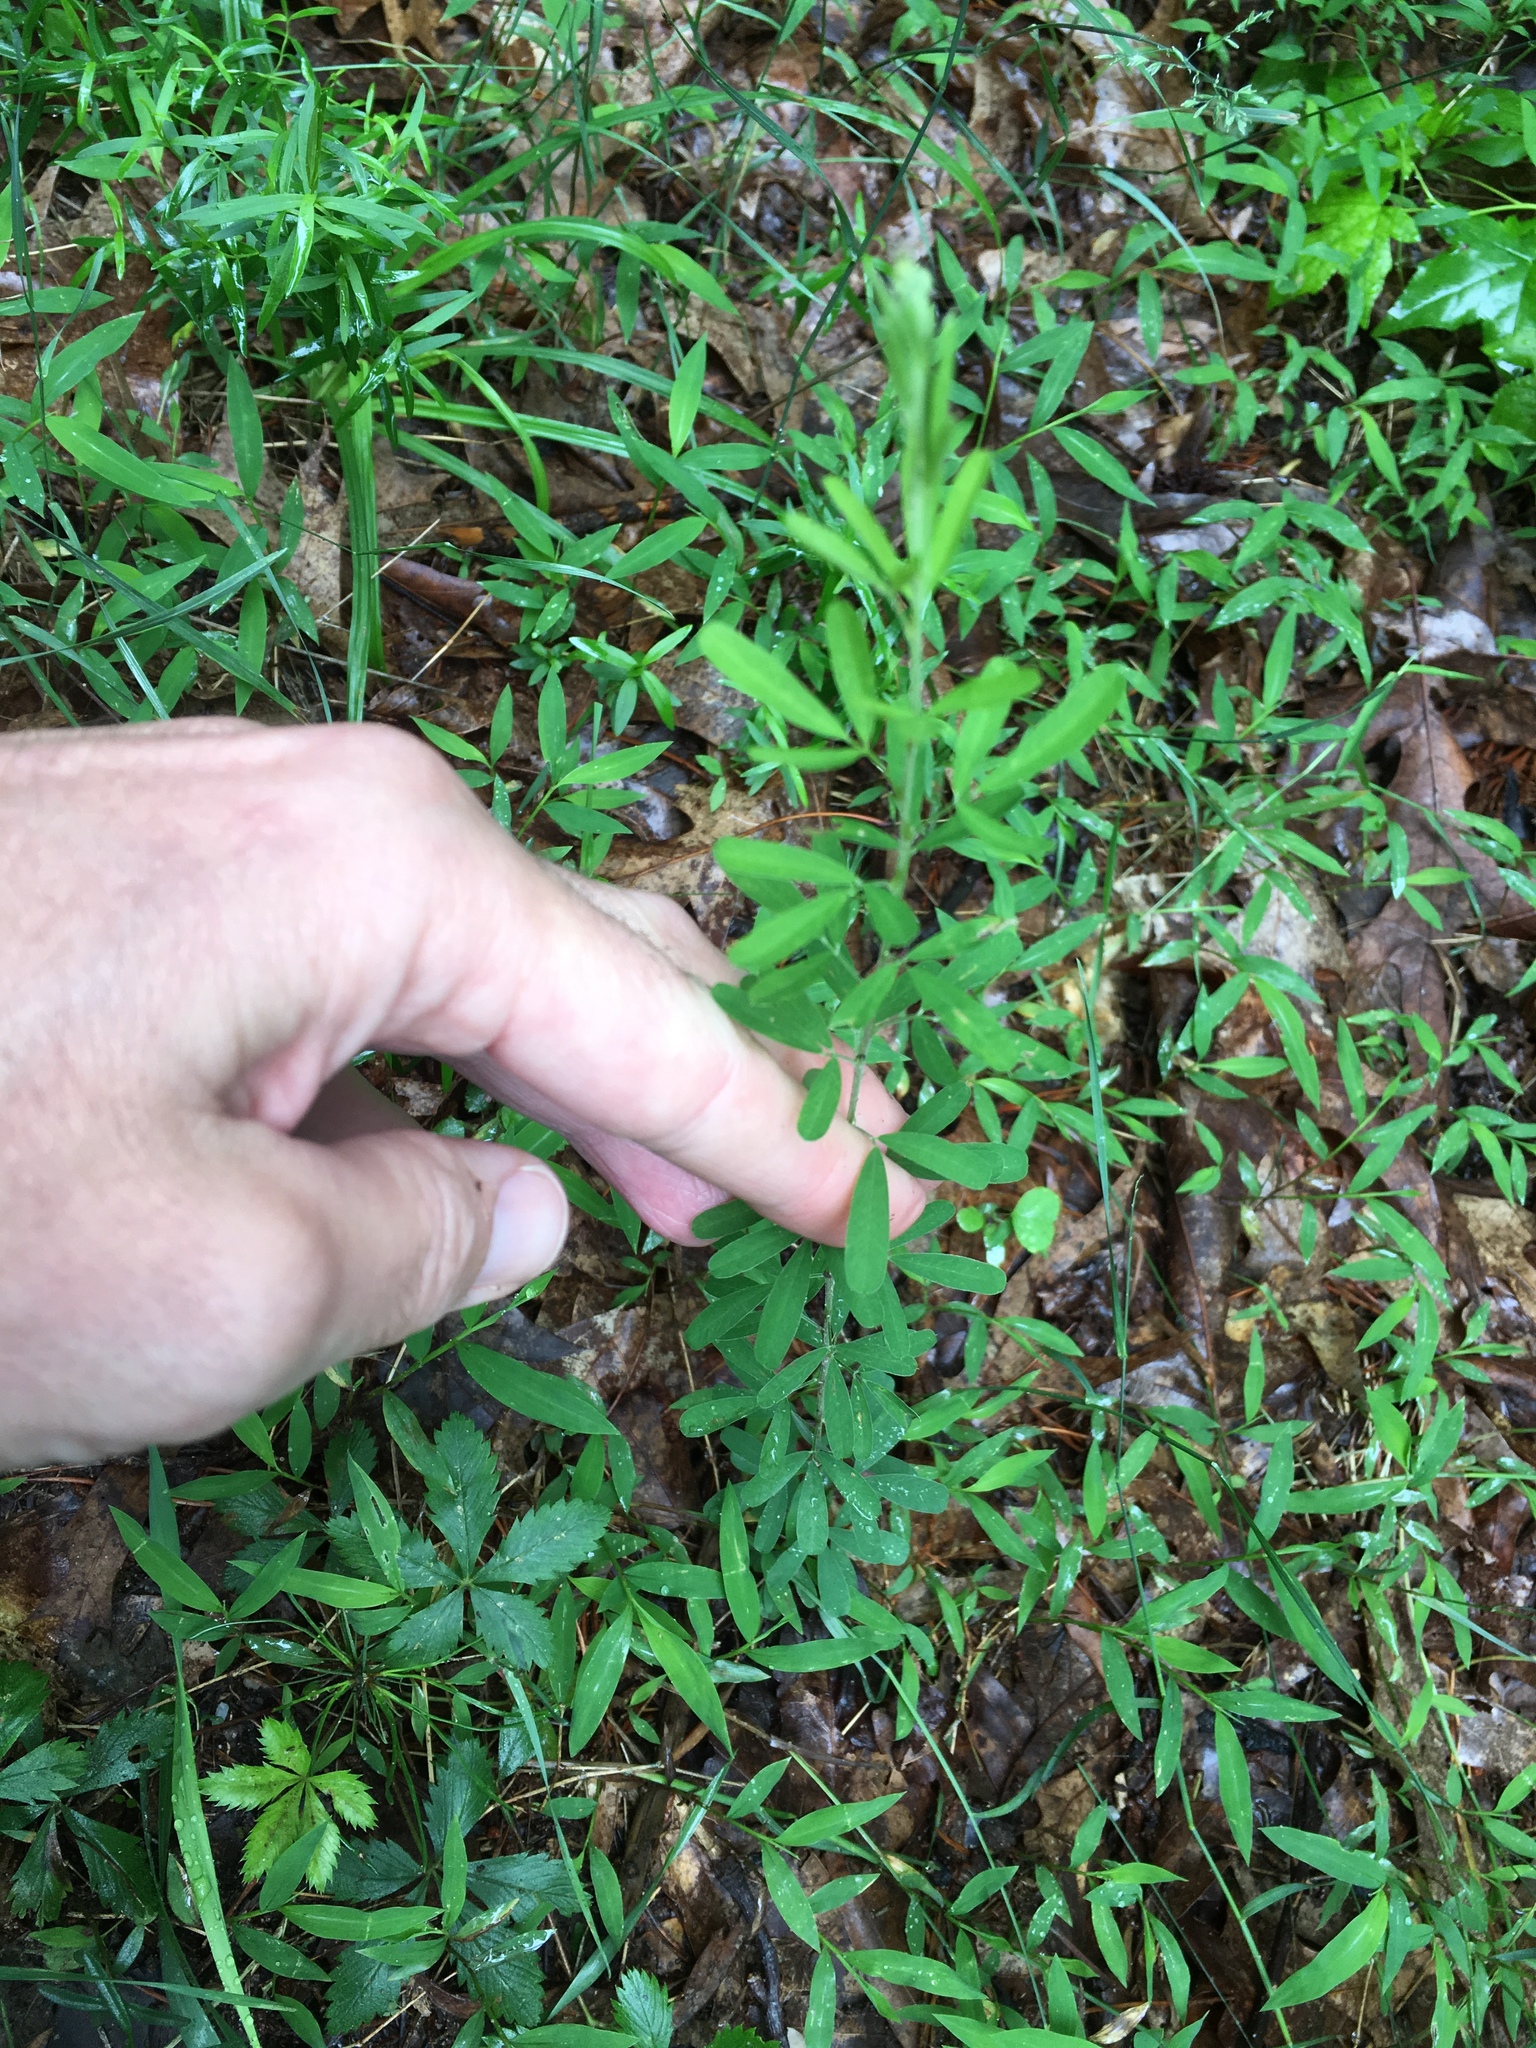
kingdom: Plantae
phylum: Tracheophyta
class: Magnoliopsida
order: Fabales
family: Fabaceae
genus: Lespedeza
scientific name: Lespedeza cuneata
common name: Chinese bush-clover
